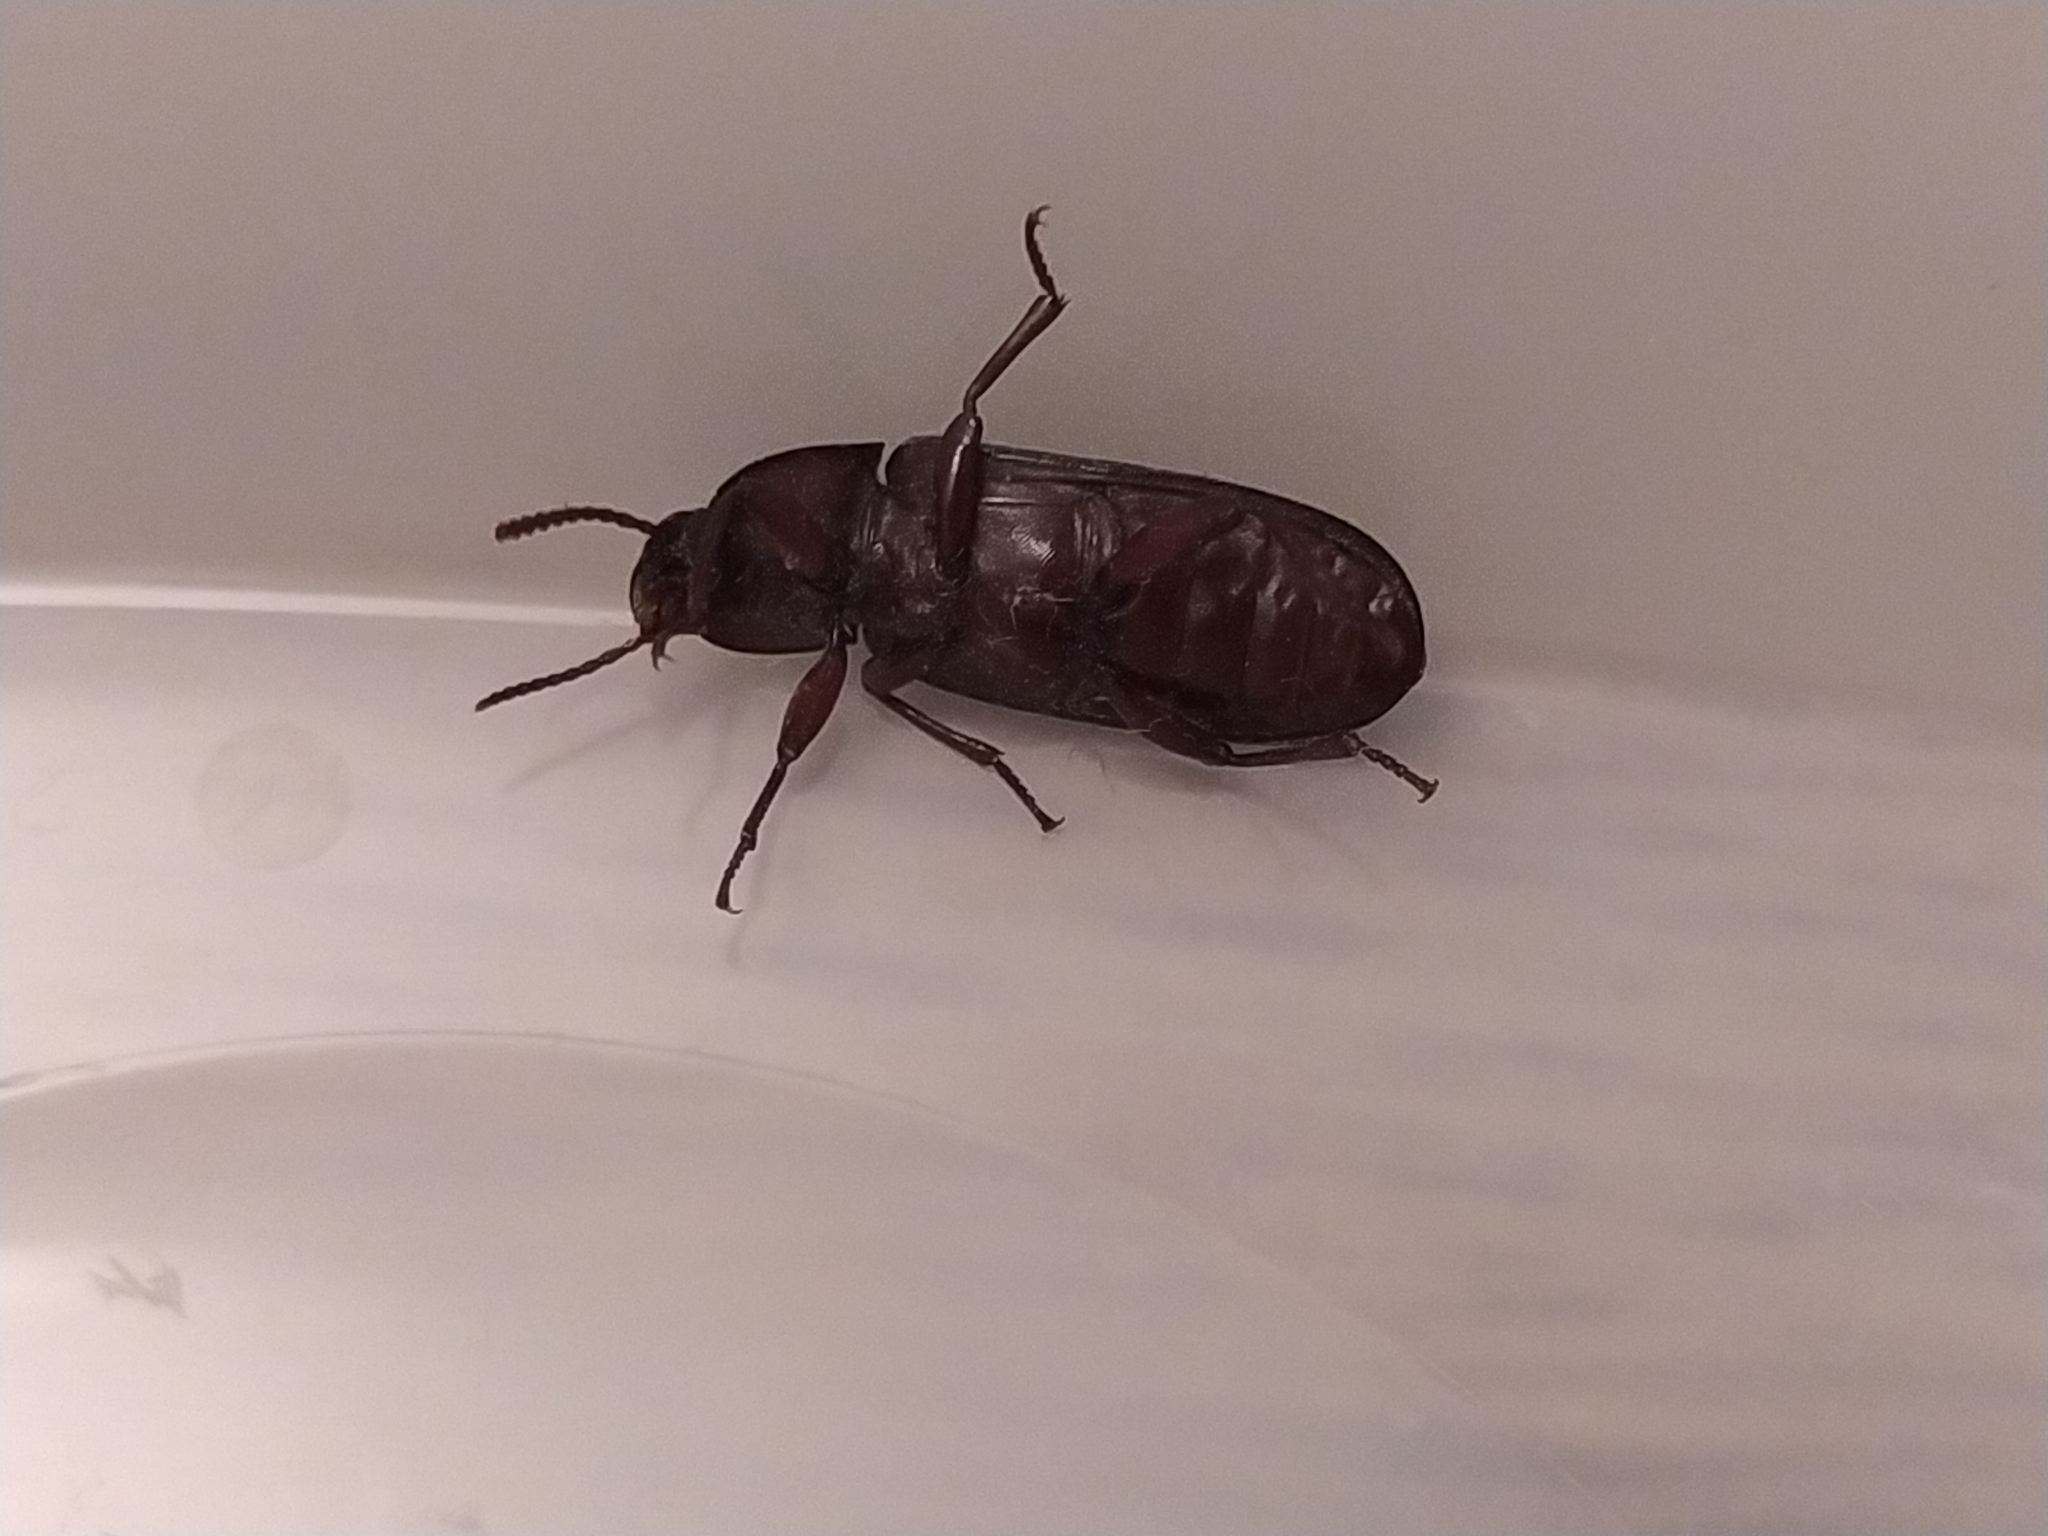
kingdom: Animalia
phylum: Arthropoda
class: Insecta
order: Coleoptera
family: Tenebrionidae
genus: Tenebrio
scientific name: Tenebrio molitor
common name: Hardback beetle
